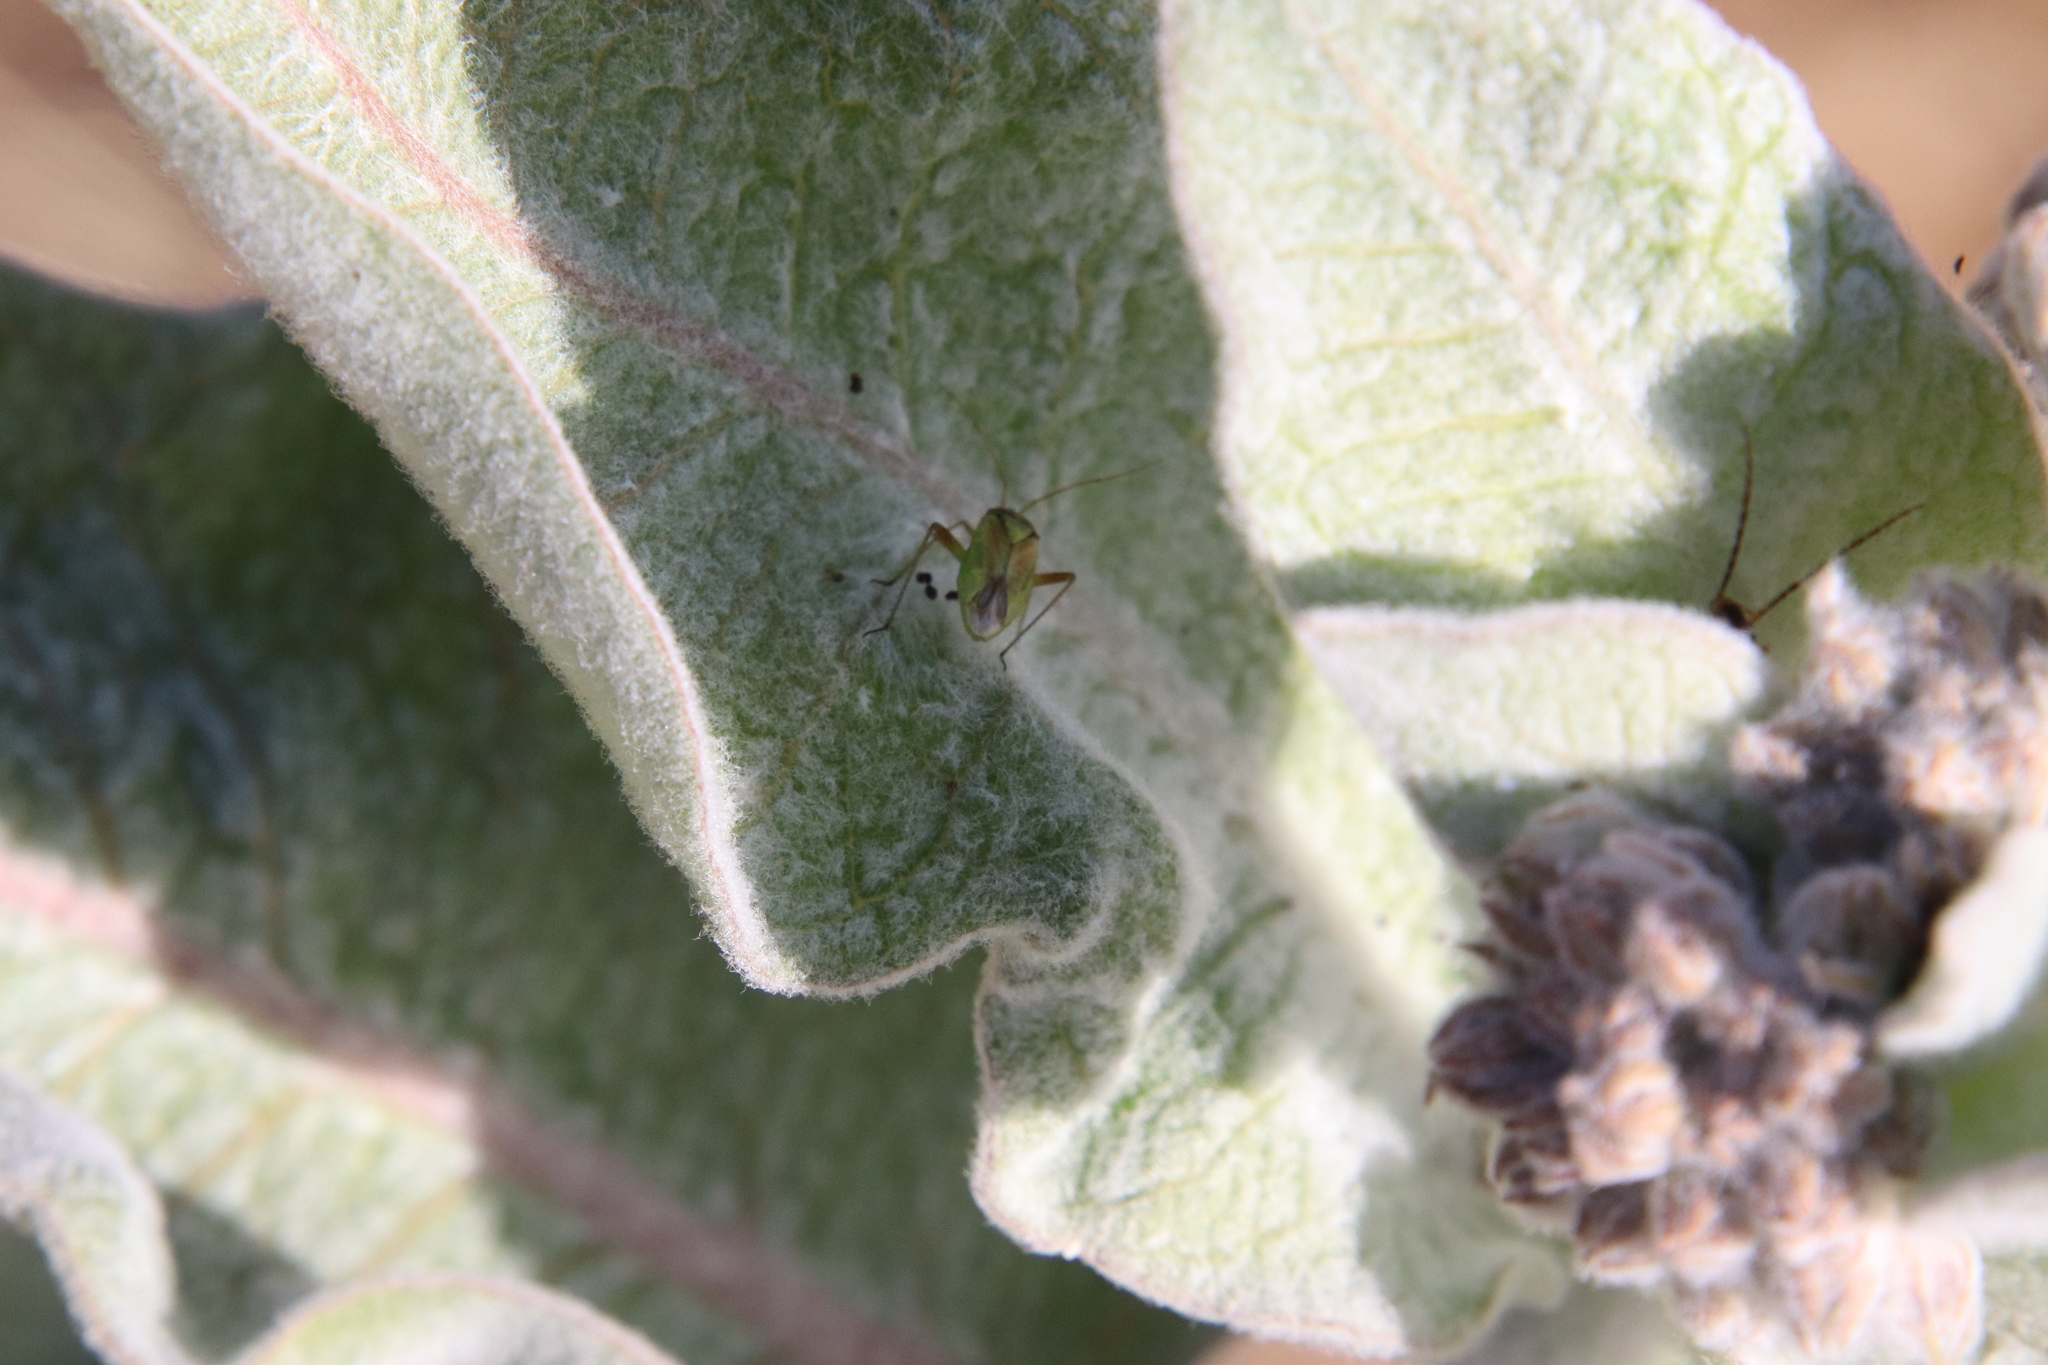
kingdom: Animalia
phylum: Arthropoda
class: Insecta
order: Hemiptera
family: Miridae
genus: Closterotomus
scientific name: Closterotomus norvegicus
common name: Plant bug
